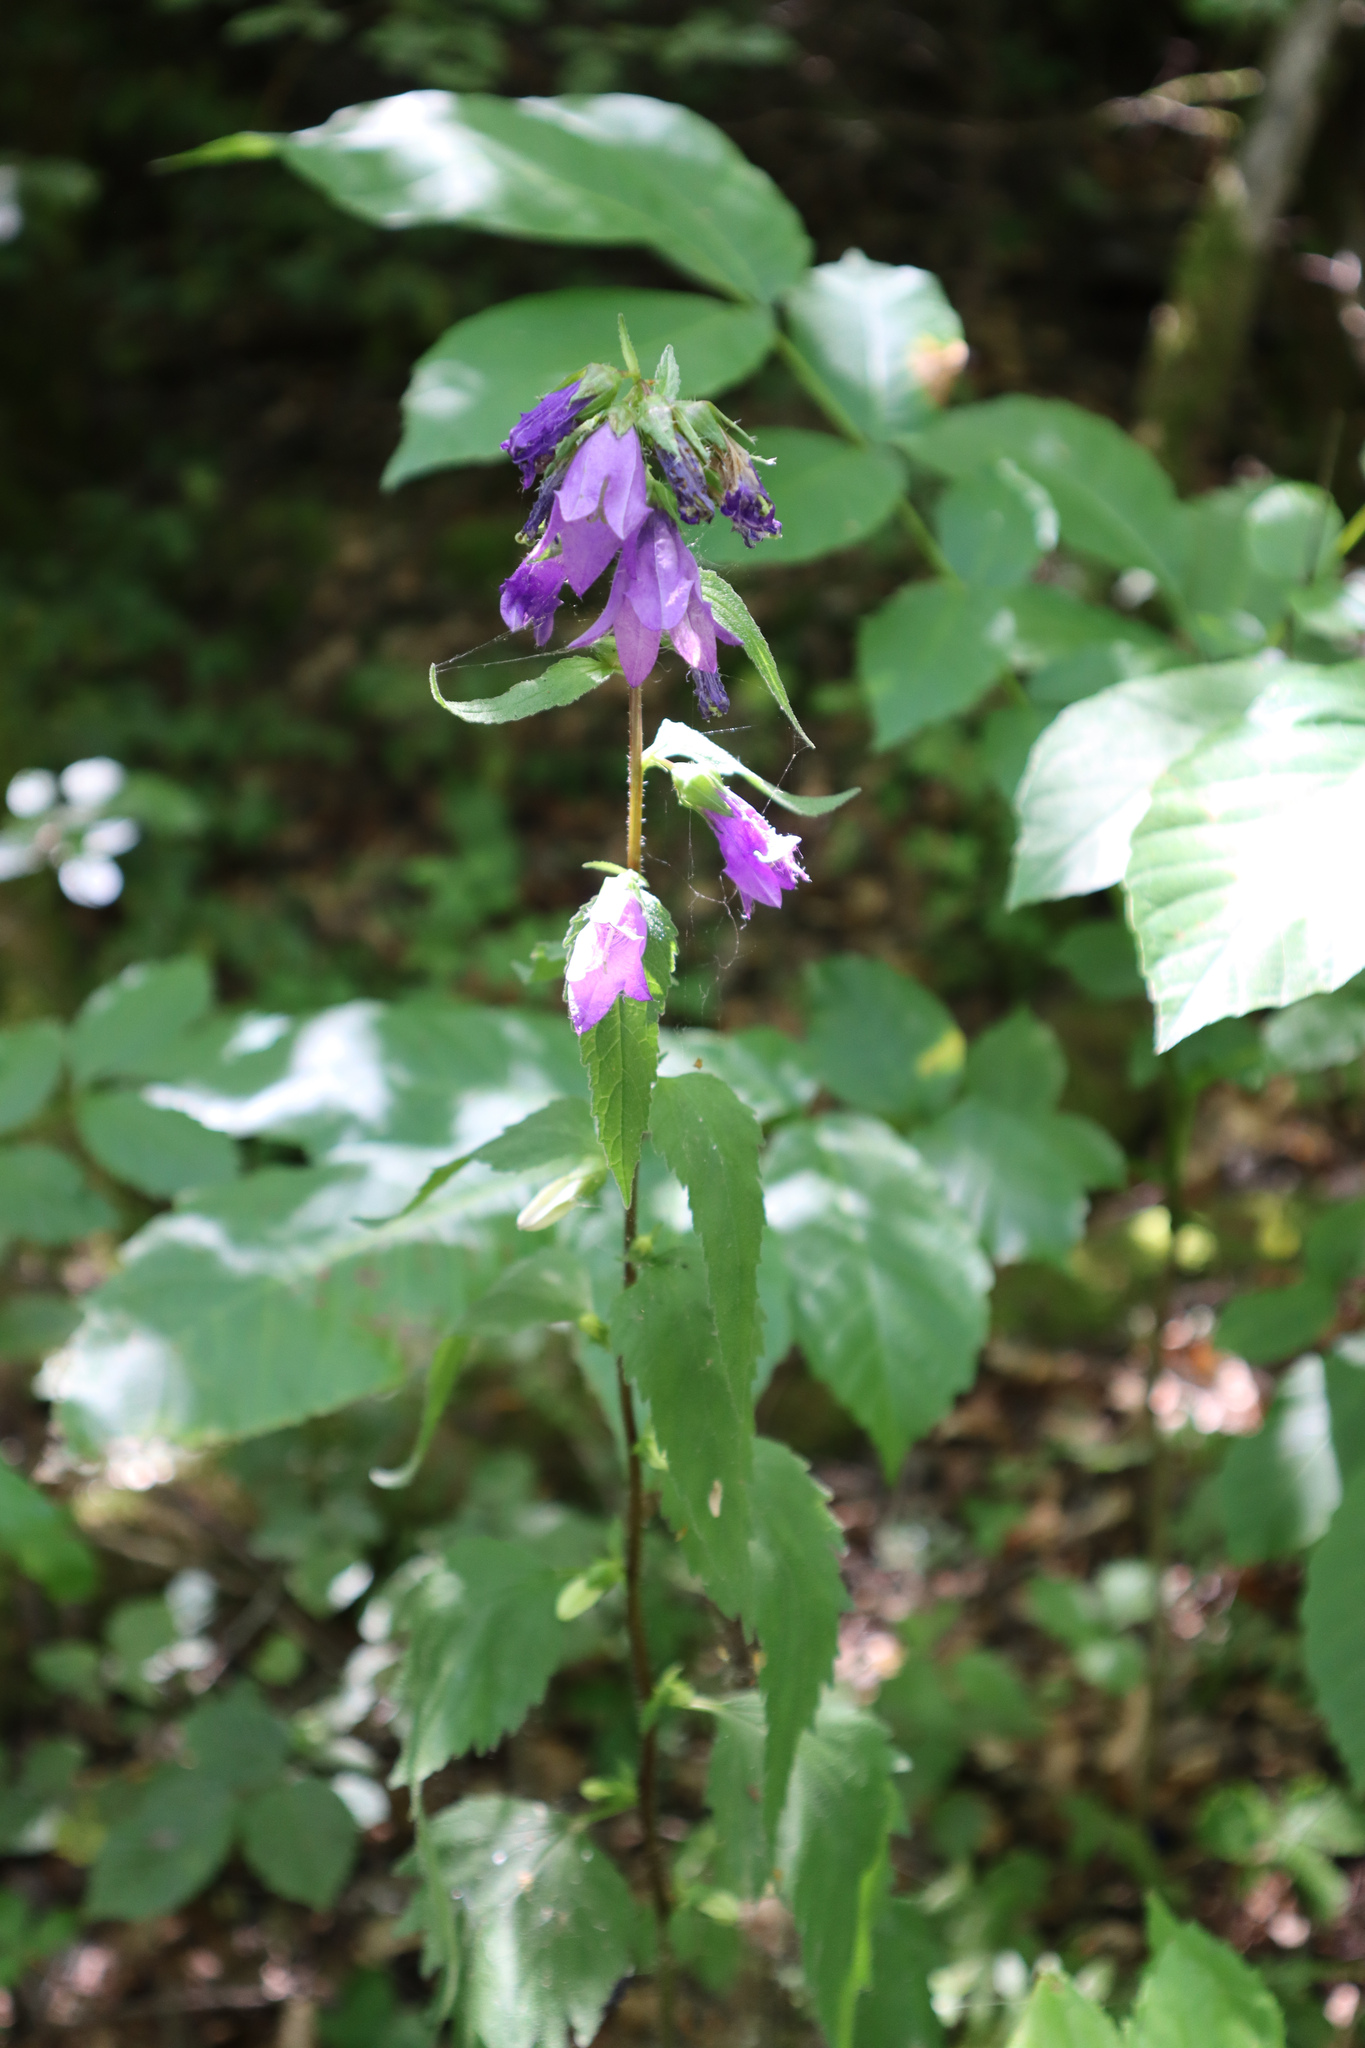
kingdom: Plantae
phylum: Tracheophyta
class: Magnoliopsida
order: Asterales
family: Campanulaceae
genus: Campanula
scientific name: Campanula trachelium
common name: Nettle-leaved bellflower
